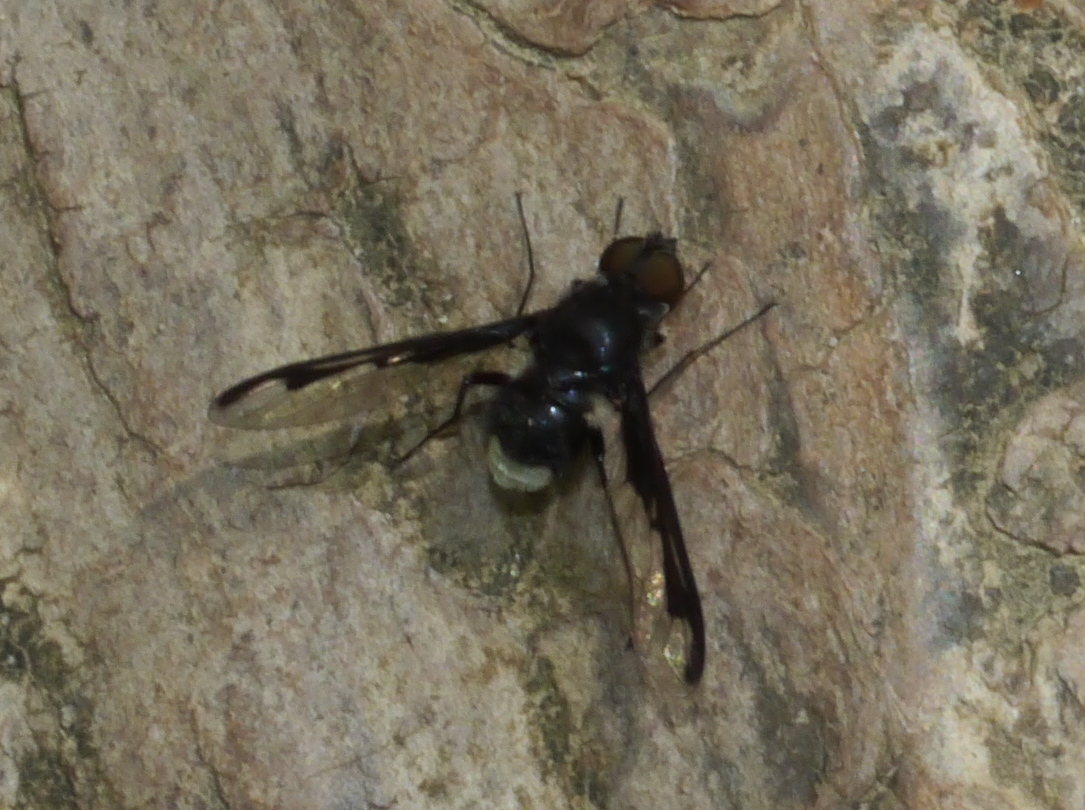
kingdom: Animalia
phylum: Arthropoda
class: Insecta
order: Diptera
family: Bombyliidae
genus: Anthrax
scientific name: Anthrax argyropygus
